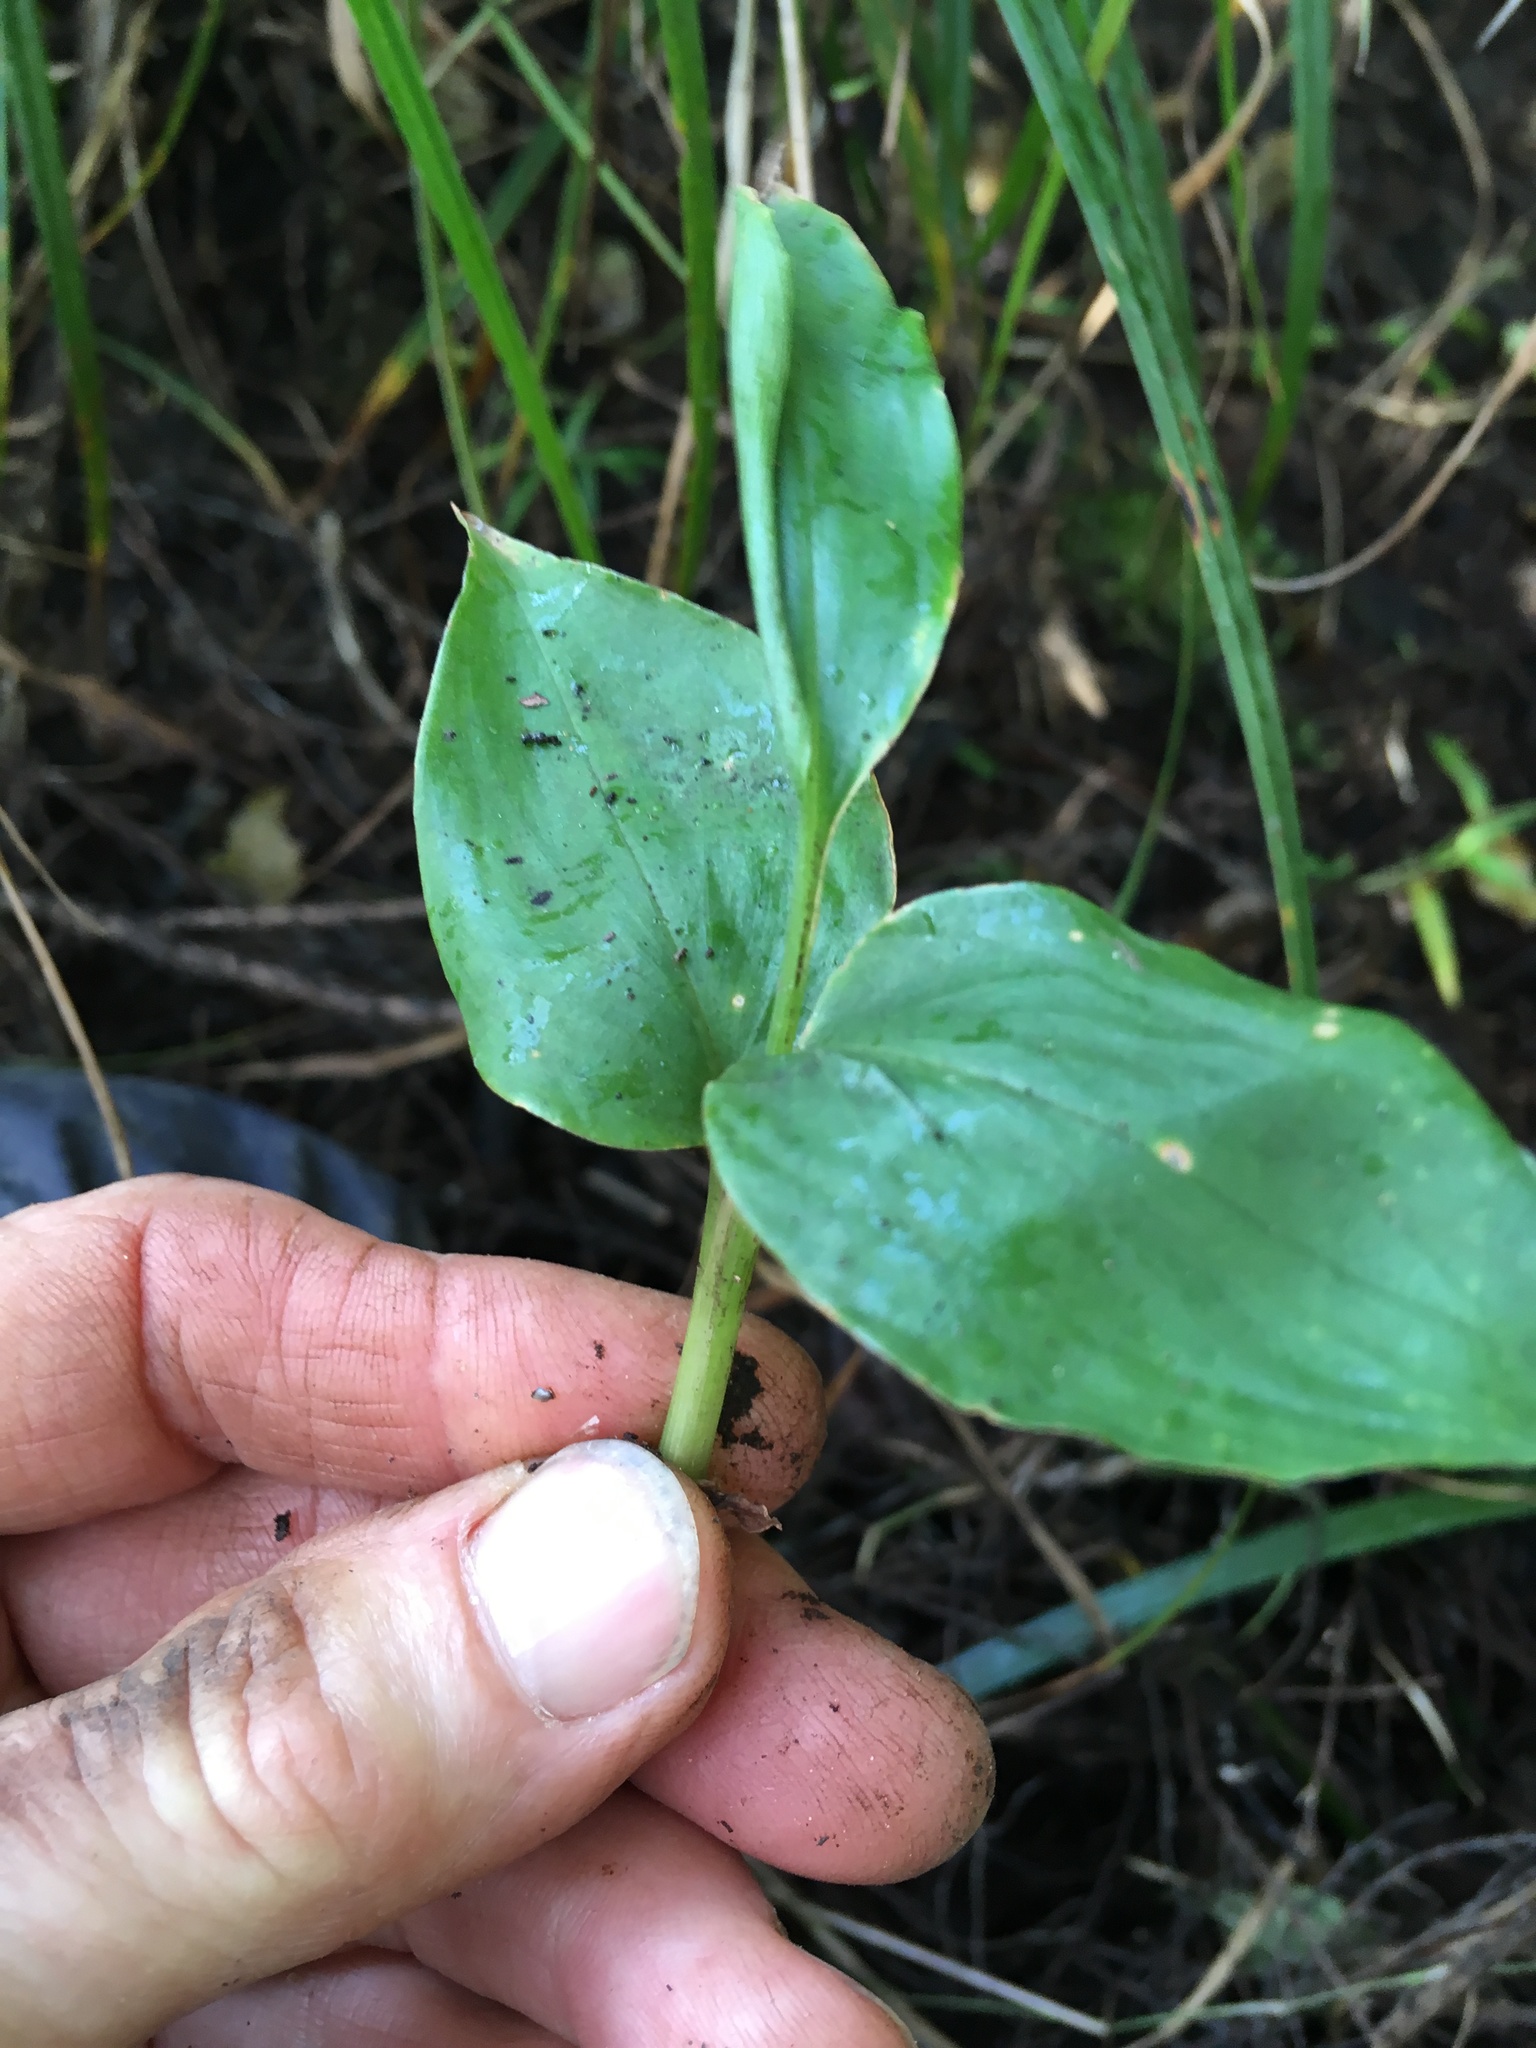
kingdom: Plantae
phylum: Tracheophyta
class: Liliopsida
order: Zingiberales
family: Zingiberaceae
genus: Hedychium
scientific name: Hedychium gardnerianum
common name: Himalayan ginger
